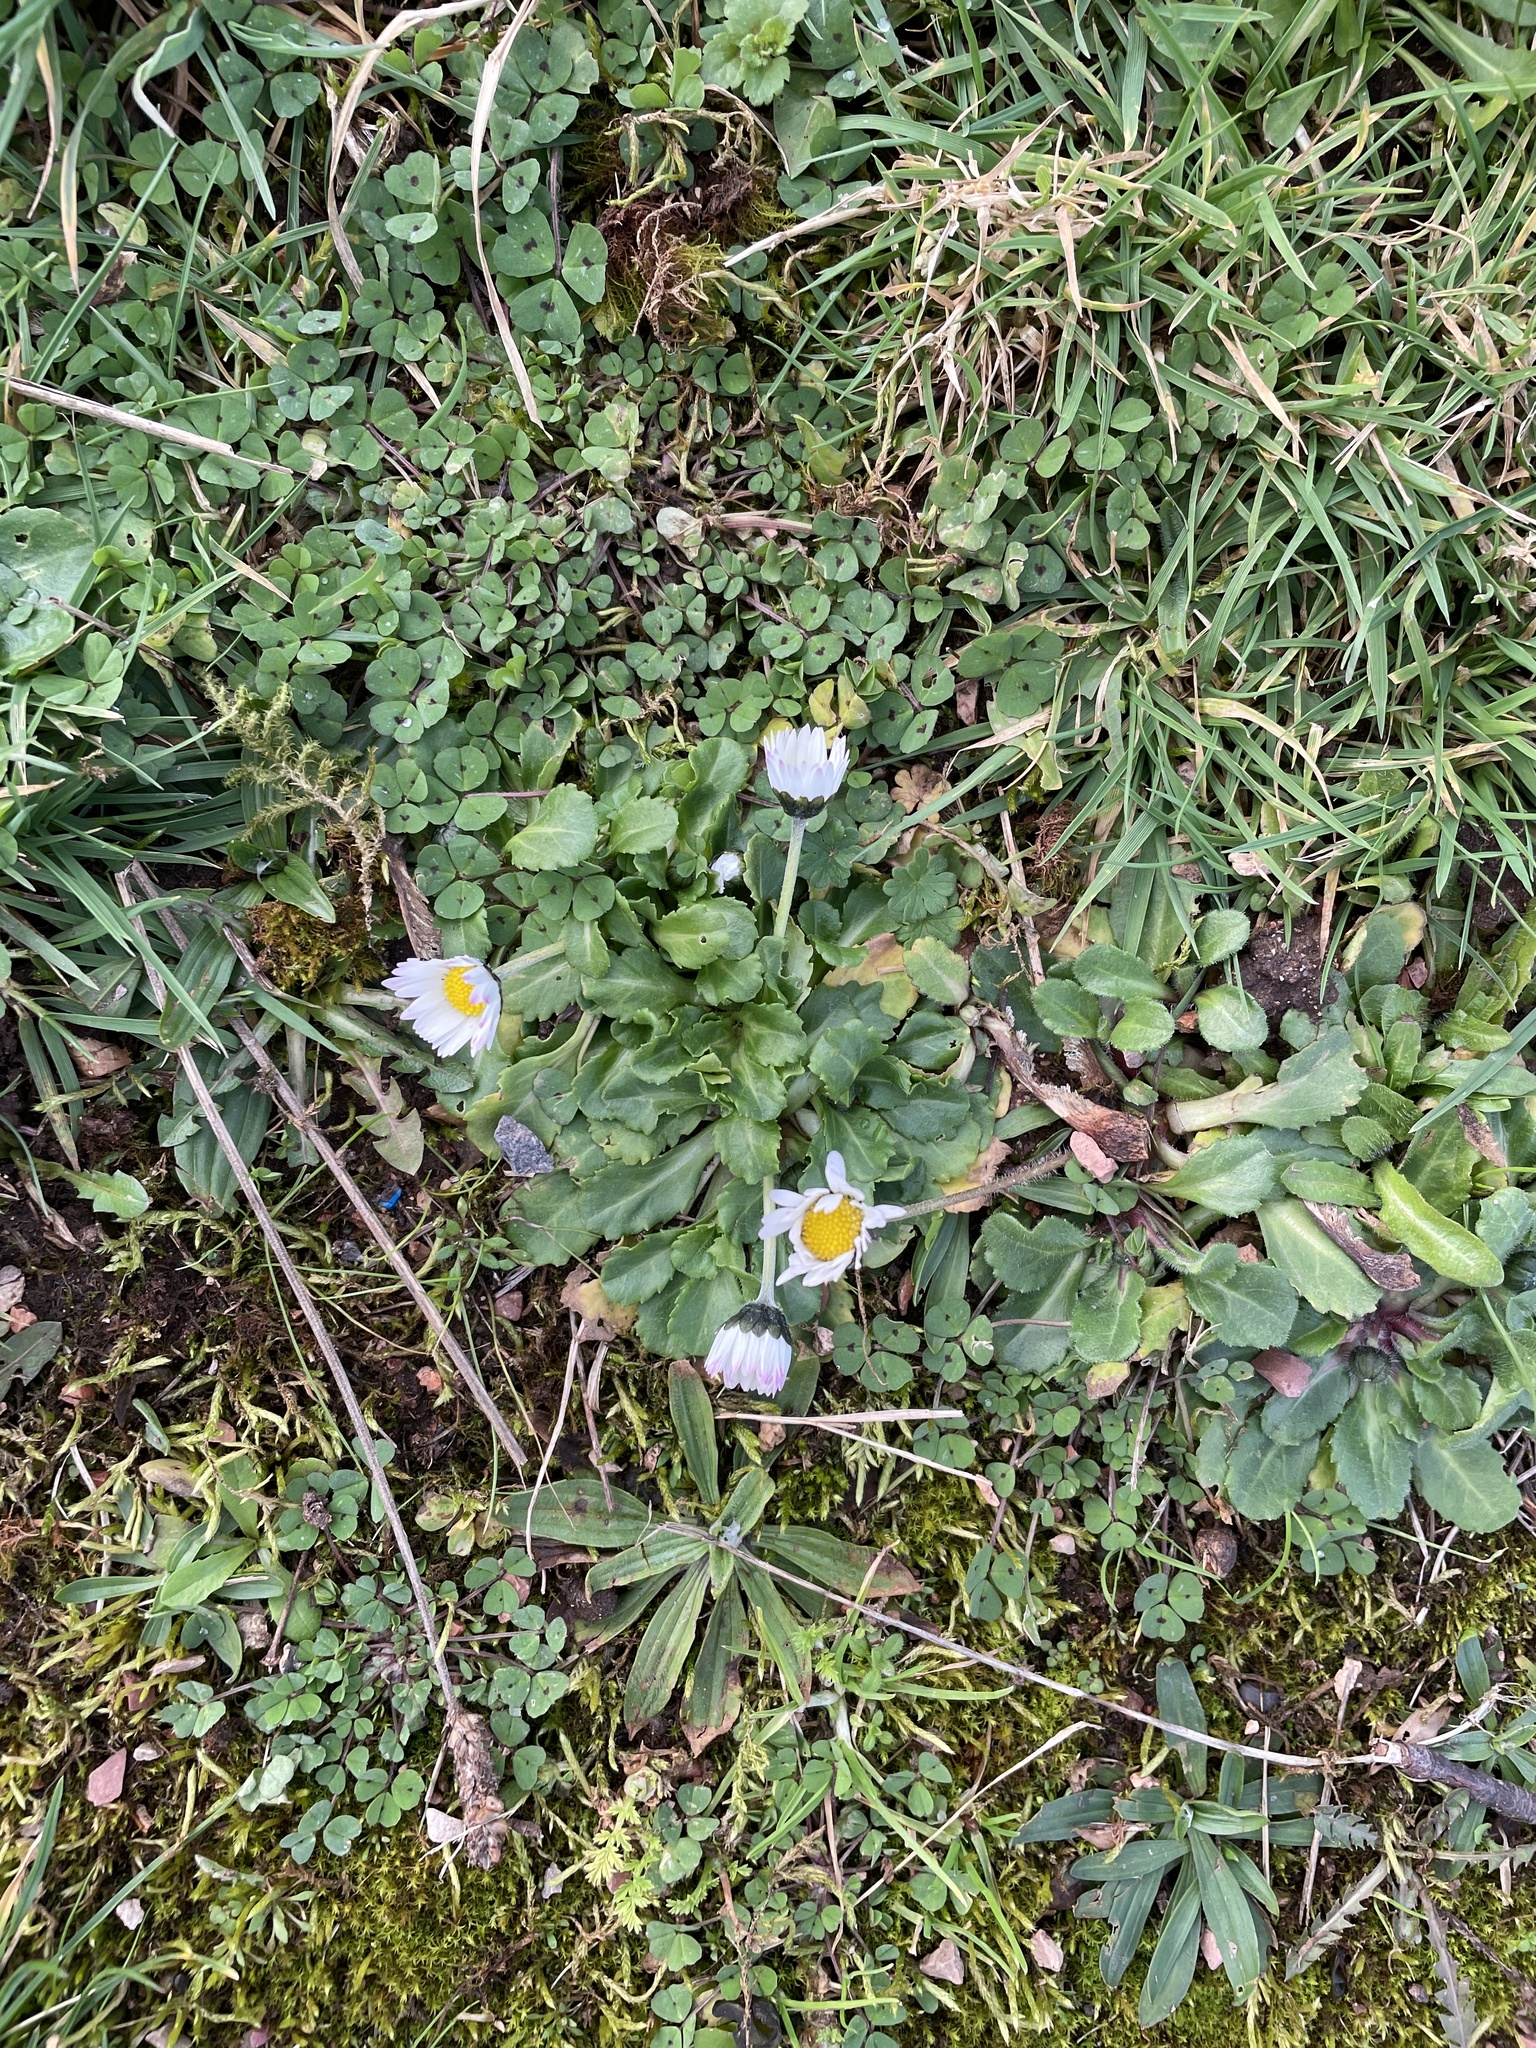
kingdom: Plantae
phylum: Tracheophyta
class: Magnoliopsida
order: Asterales
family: Asteraceae
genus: Bellis
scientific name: Bellis perennis
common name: Lawndaisy
